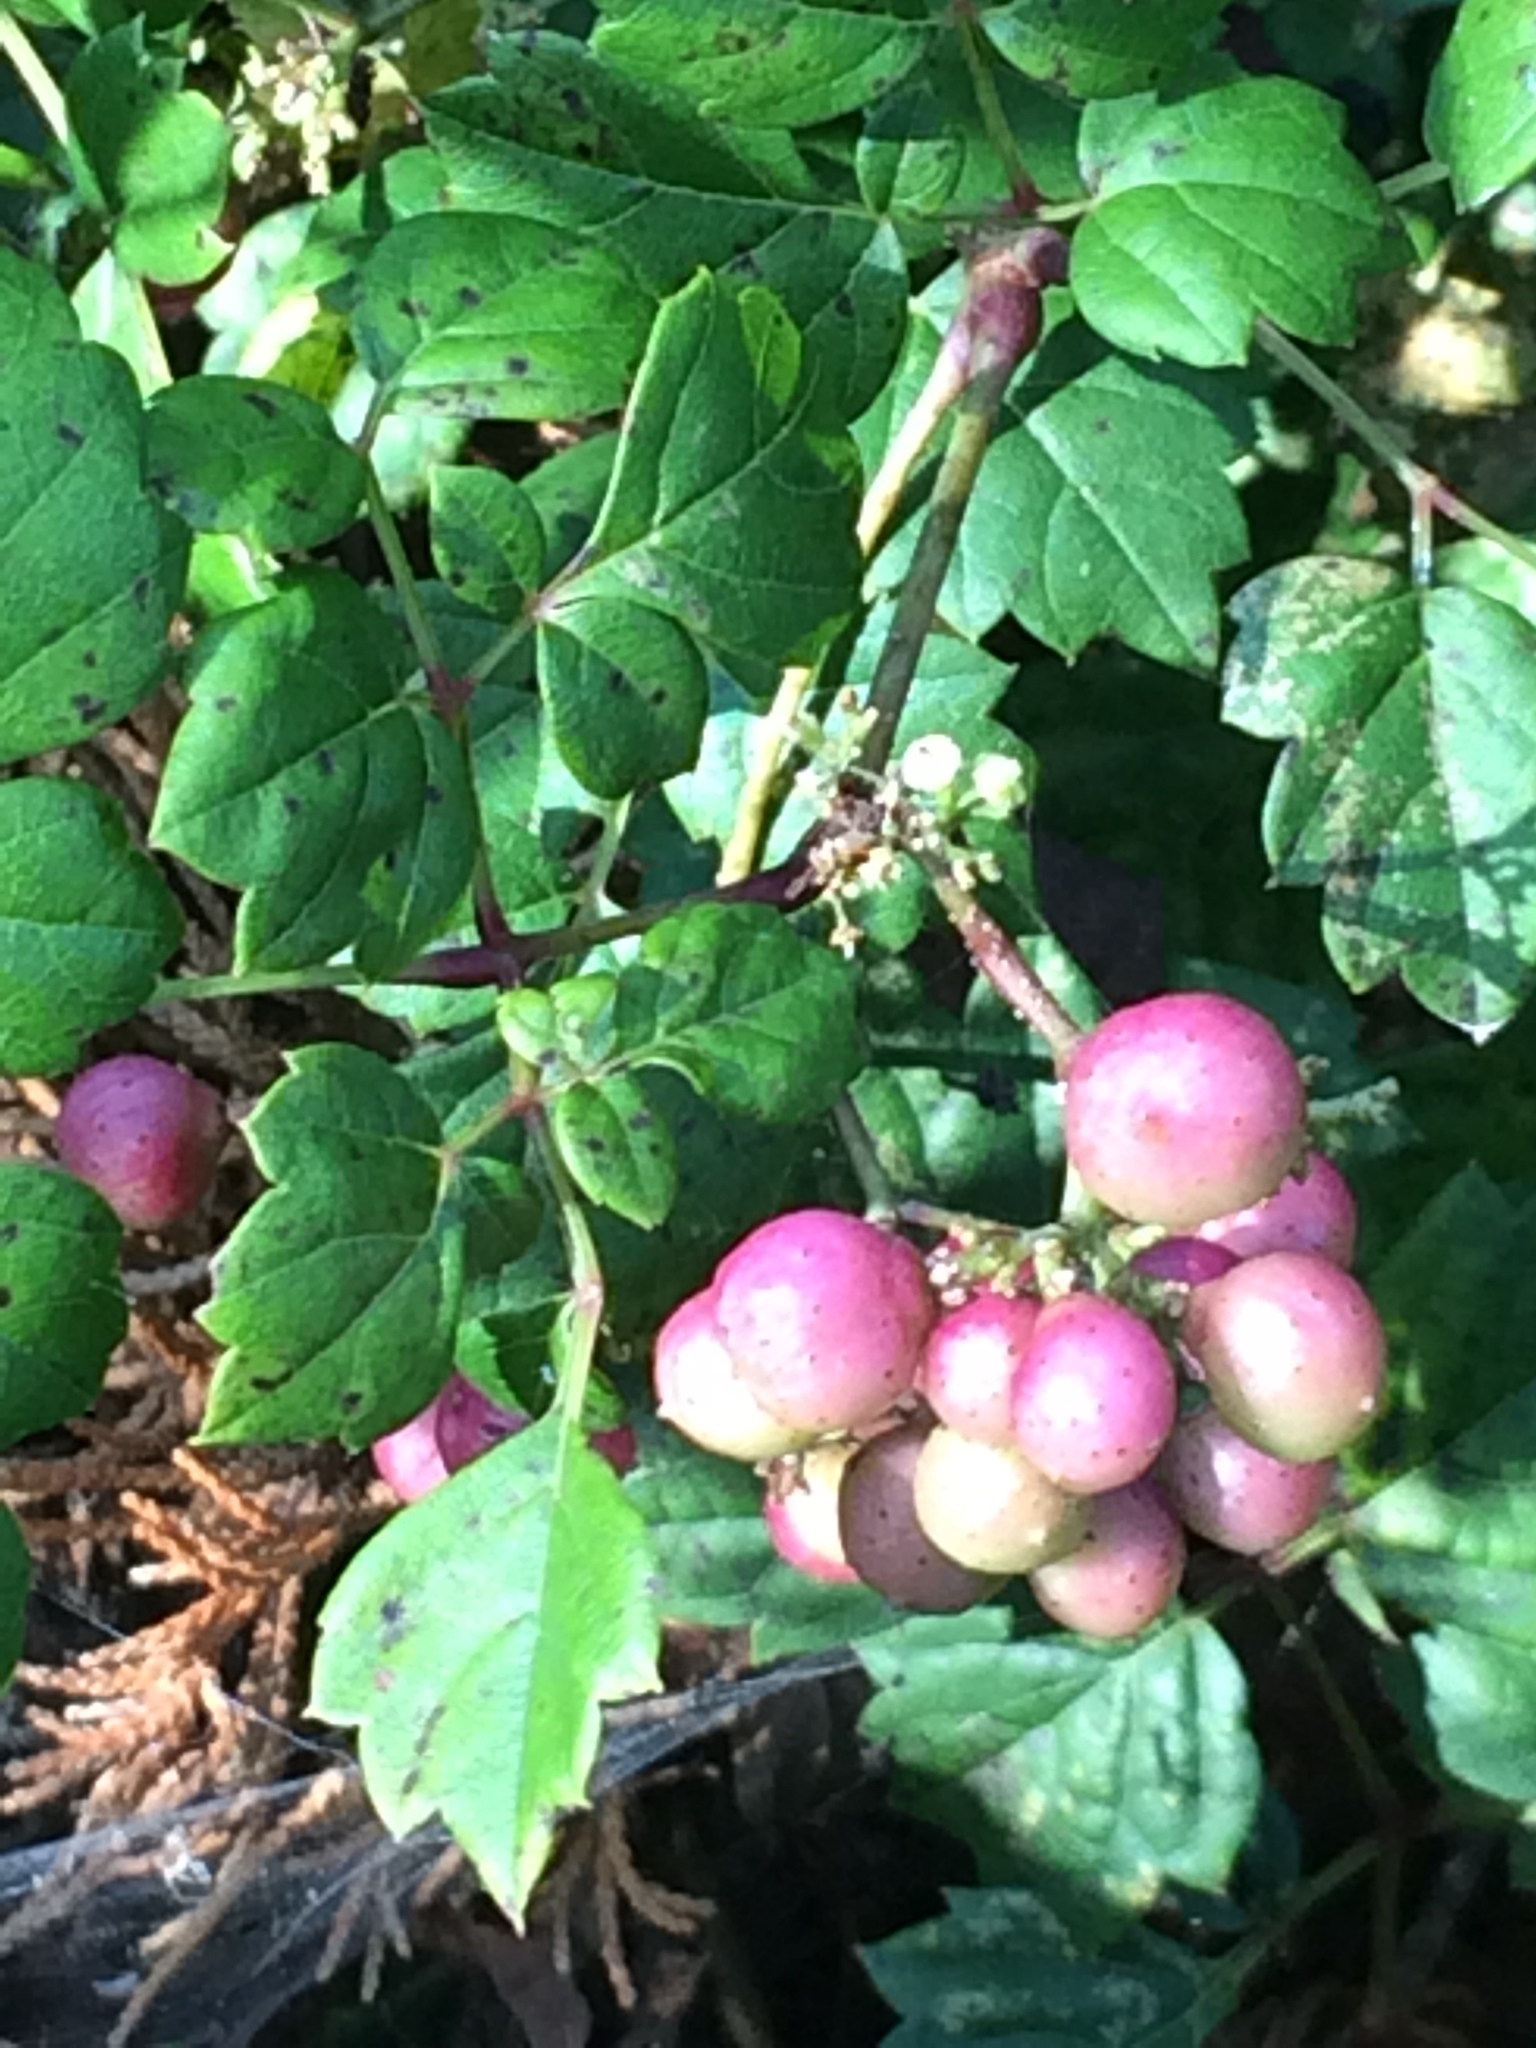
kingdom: Plantae
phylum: Tracheophyta
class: Magnoliopsida
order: Vitales
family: Vitaceae
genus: Nekemias
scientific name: Nekemias arborea
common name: Peppervine
